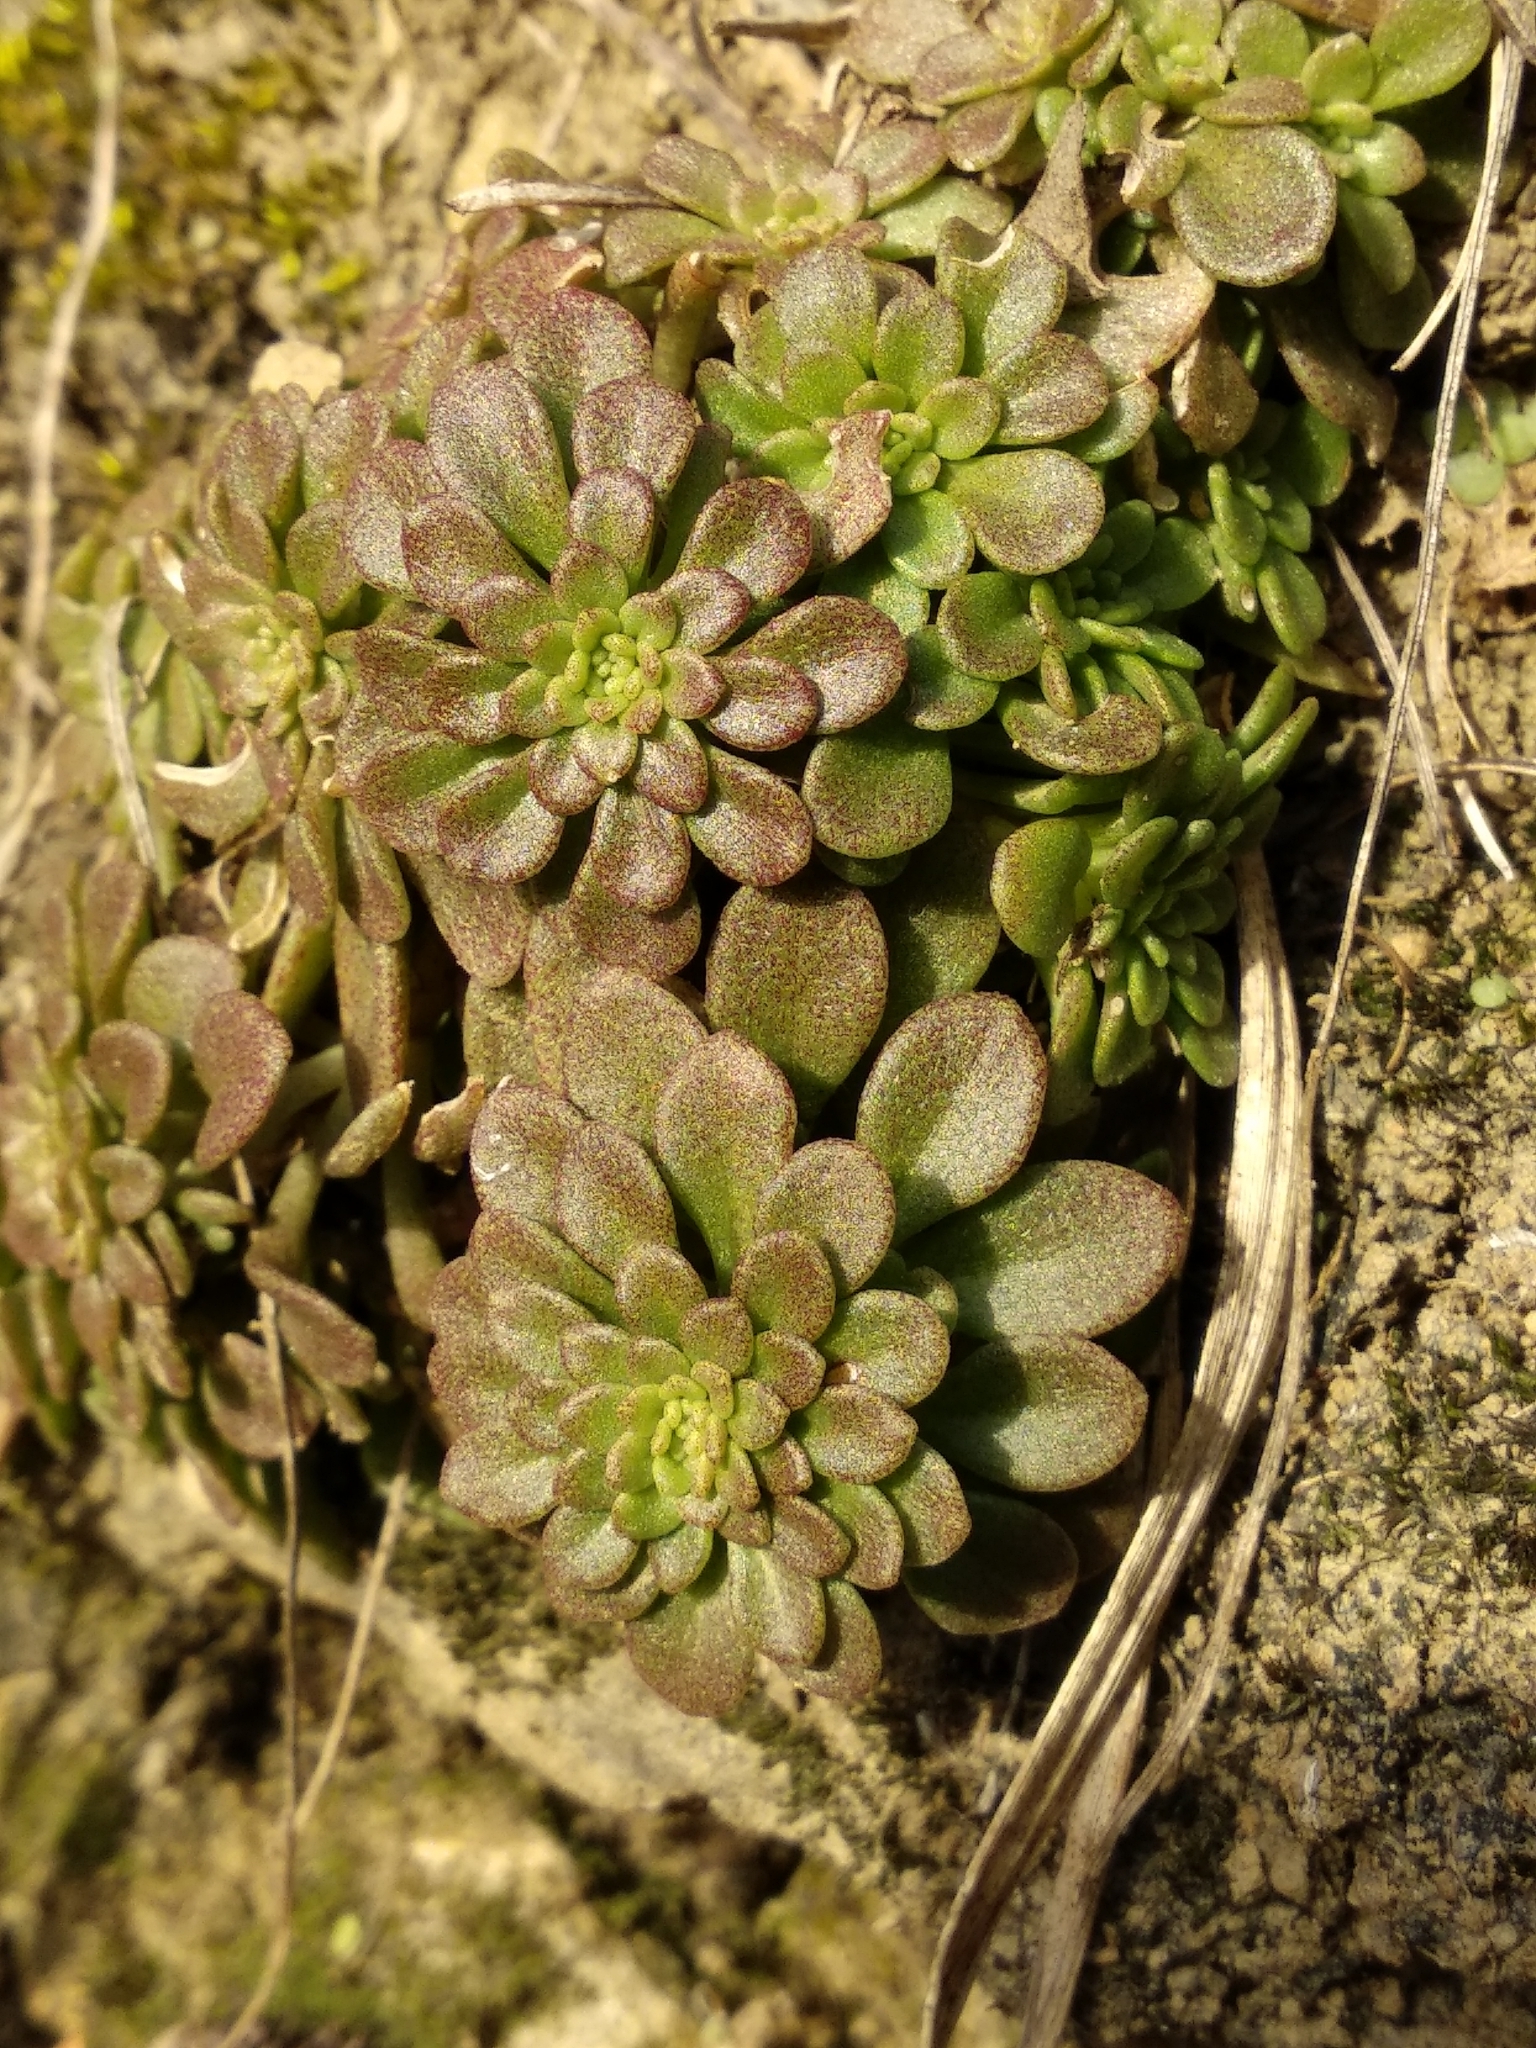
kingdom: Plantae
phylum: Tracheophyta
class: Magnoliopsida
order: Saxifragales
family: Crassulaceae
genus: Sedum
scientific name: Sedum cepaea
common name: Pink stonecrop
